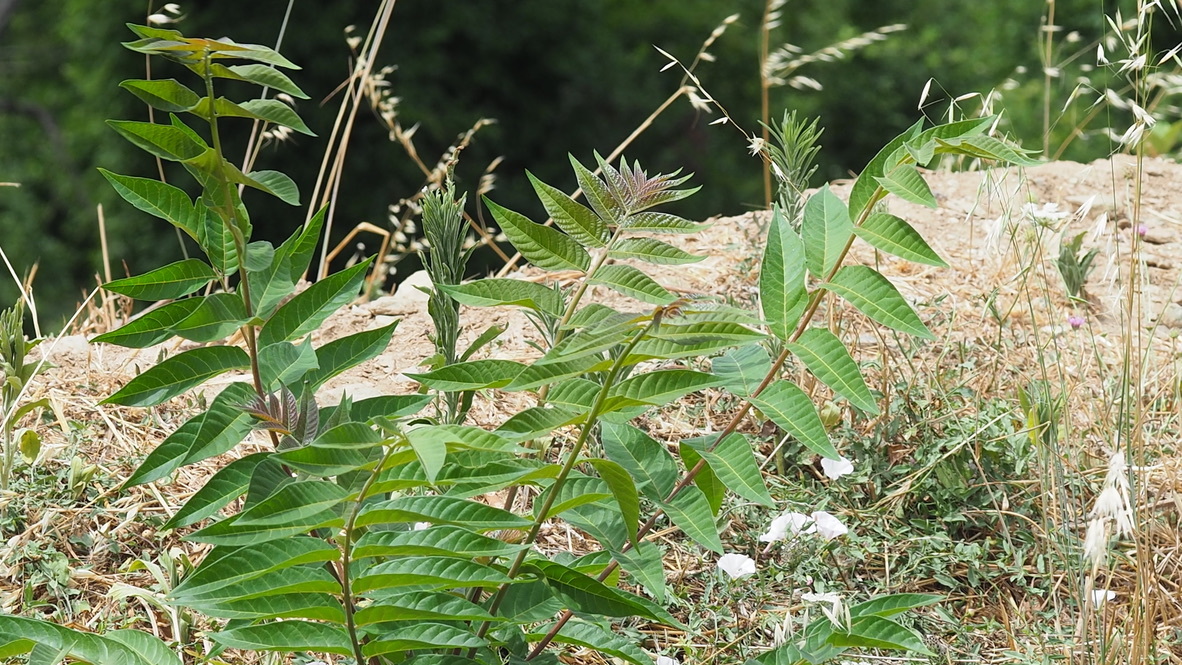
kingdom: Plantae
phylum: Tracheophyta
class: Magnoliopsida
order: Sapindales
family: Simaroubaceae
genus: Ailanthus
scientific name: Ailanthus altissima
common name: Tree-of-heaven
